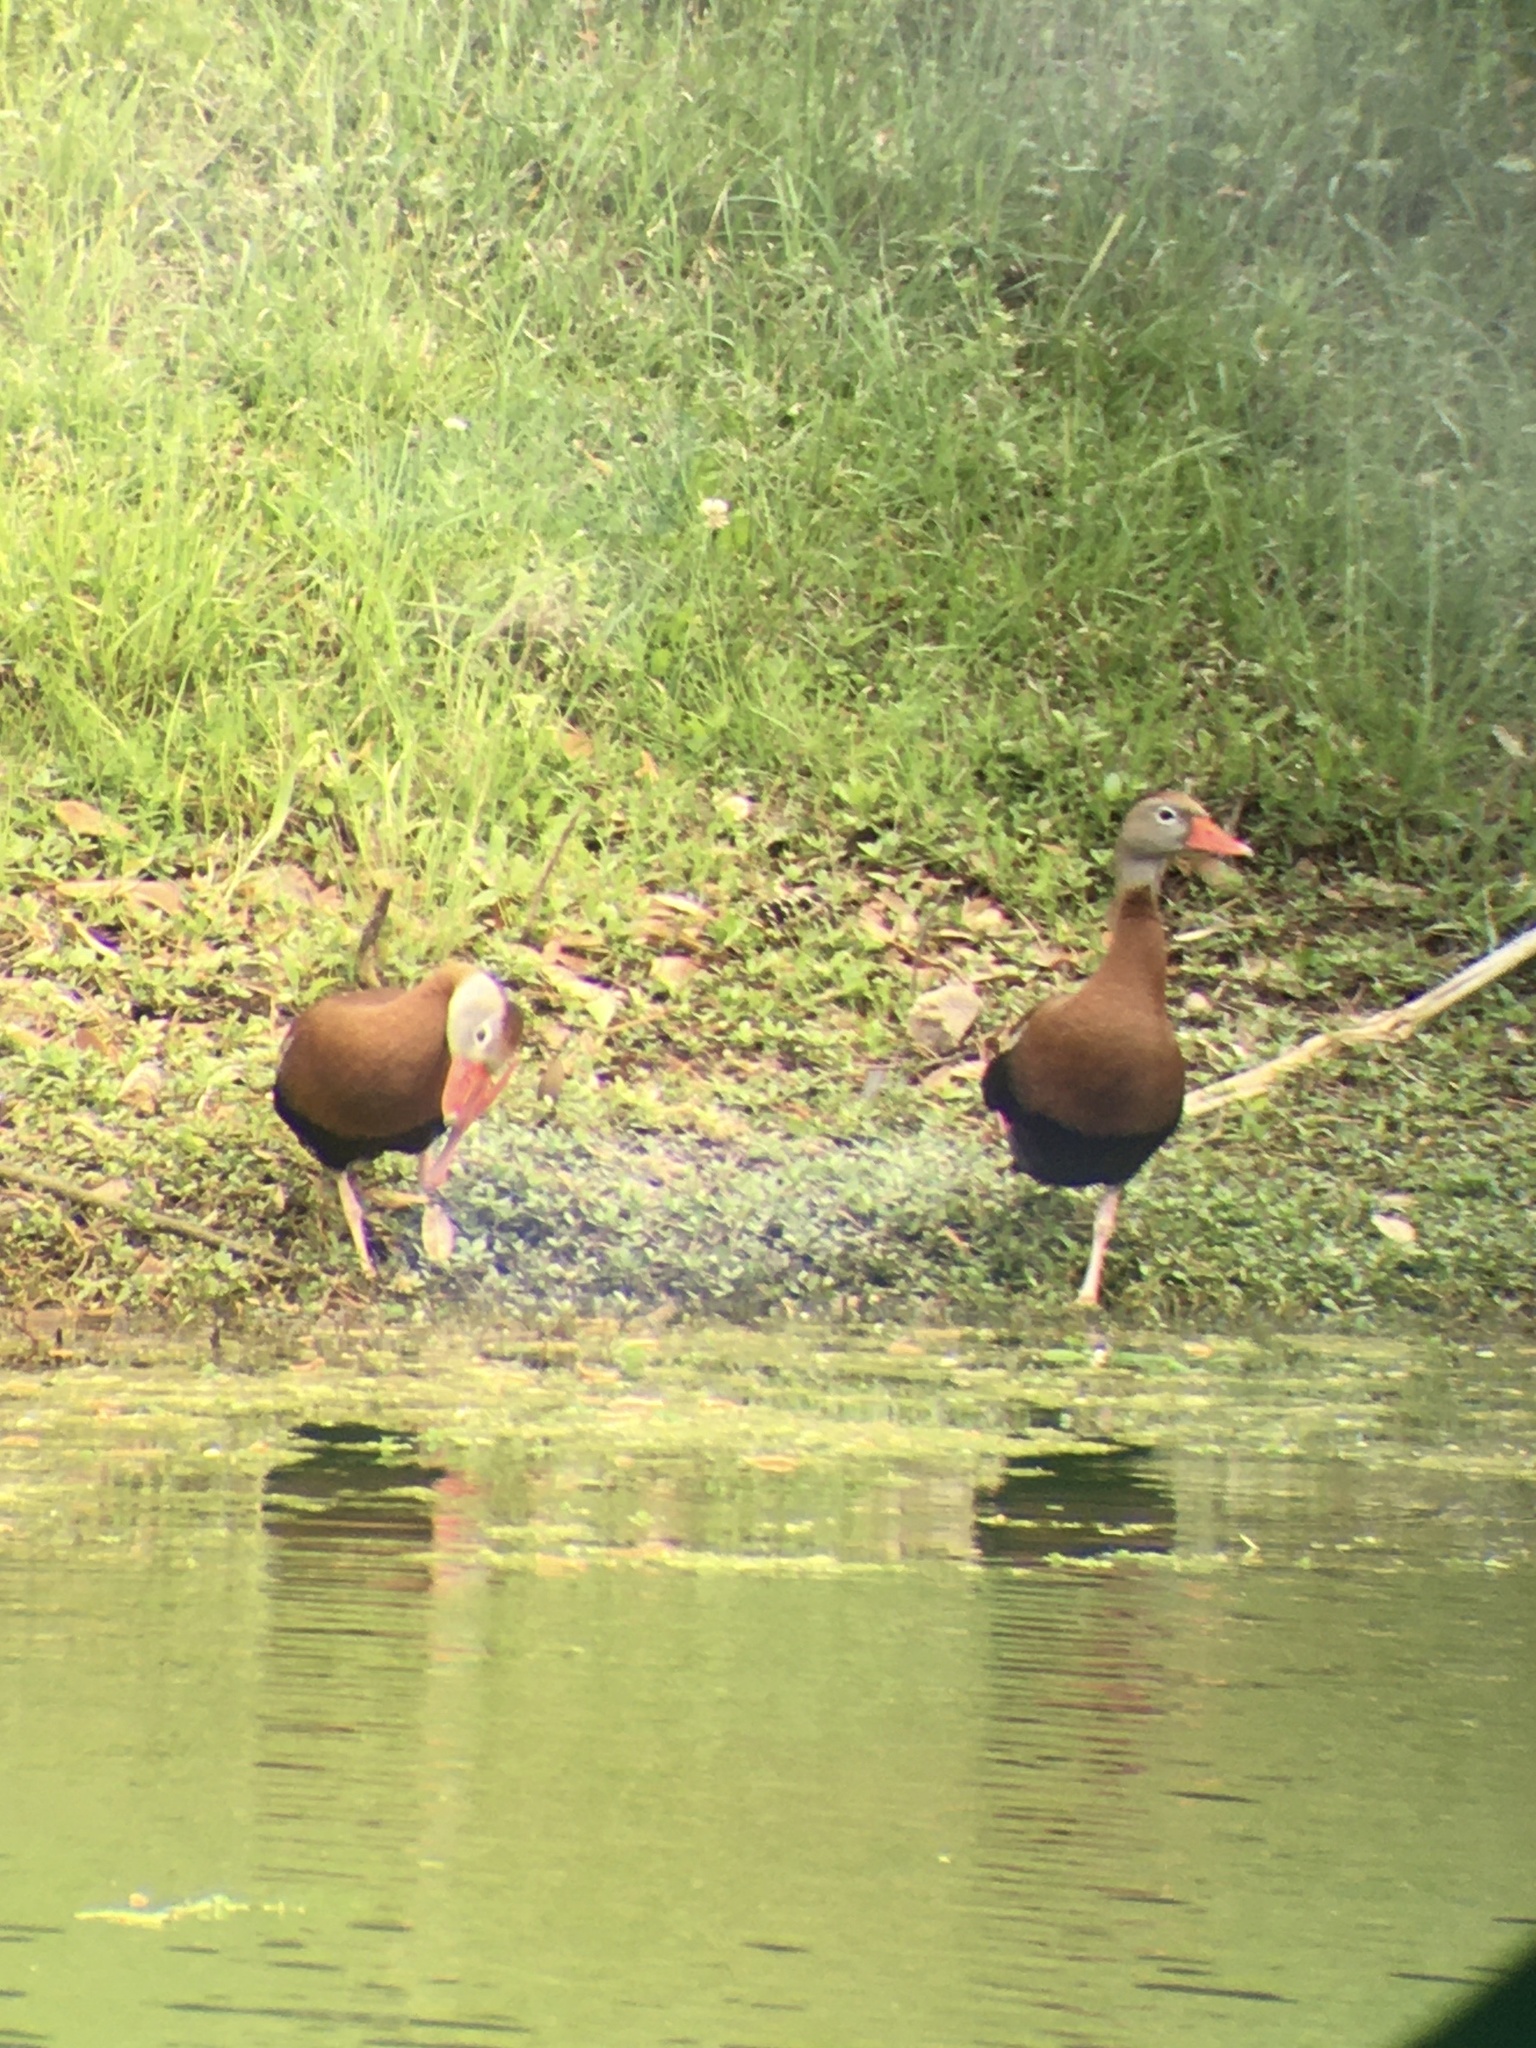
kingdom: Animalia
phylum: Chordata
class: Aves
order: Anseriformes
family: Anatidae
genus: Dendrocygna
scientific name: Dendrocygna autumnalis
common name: Black-bellied whistling duck
